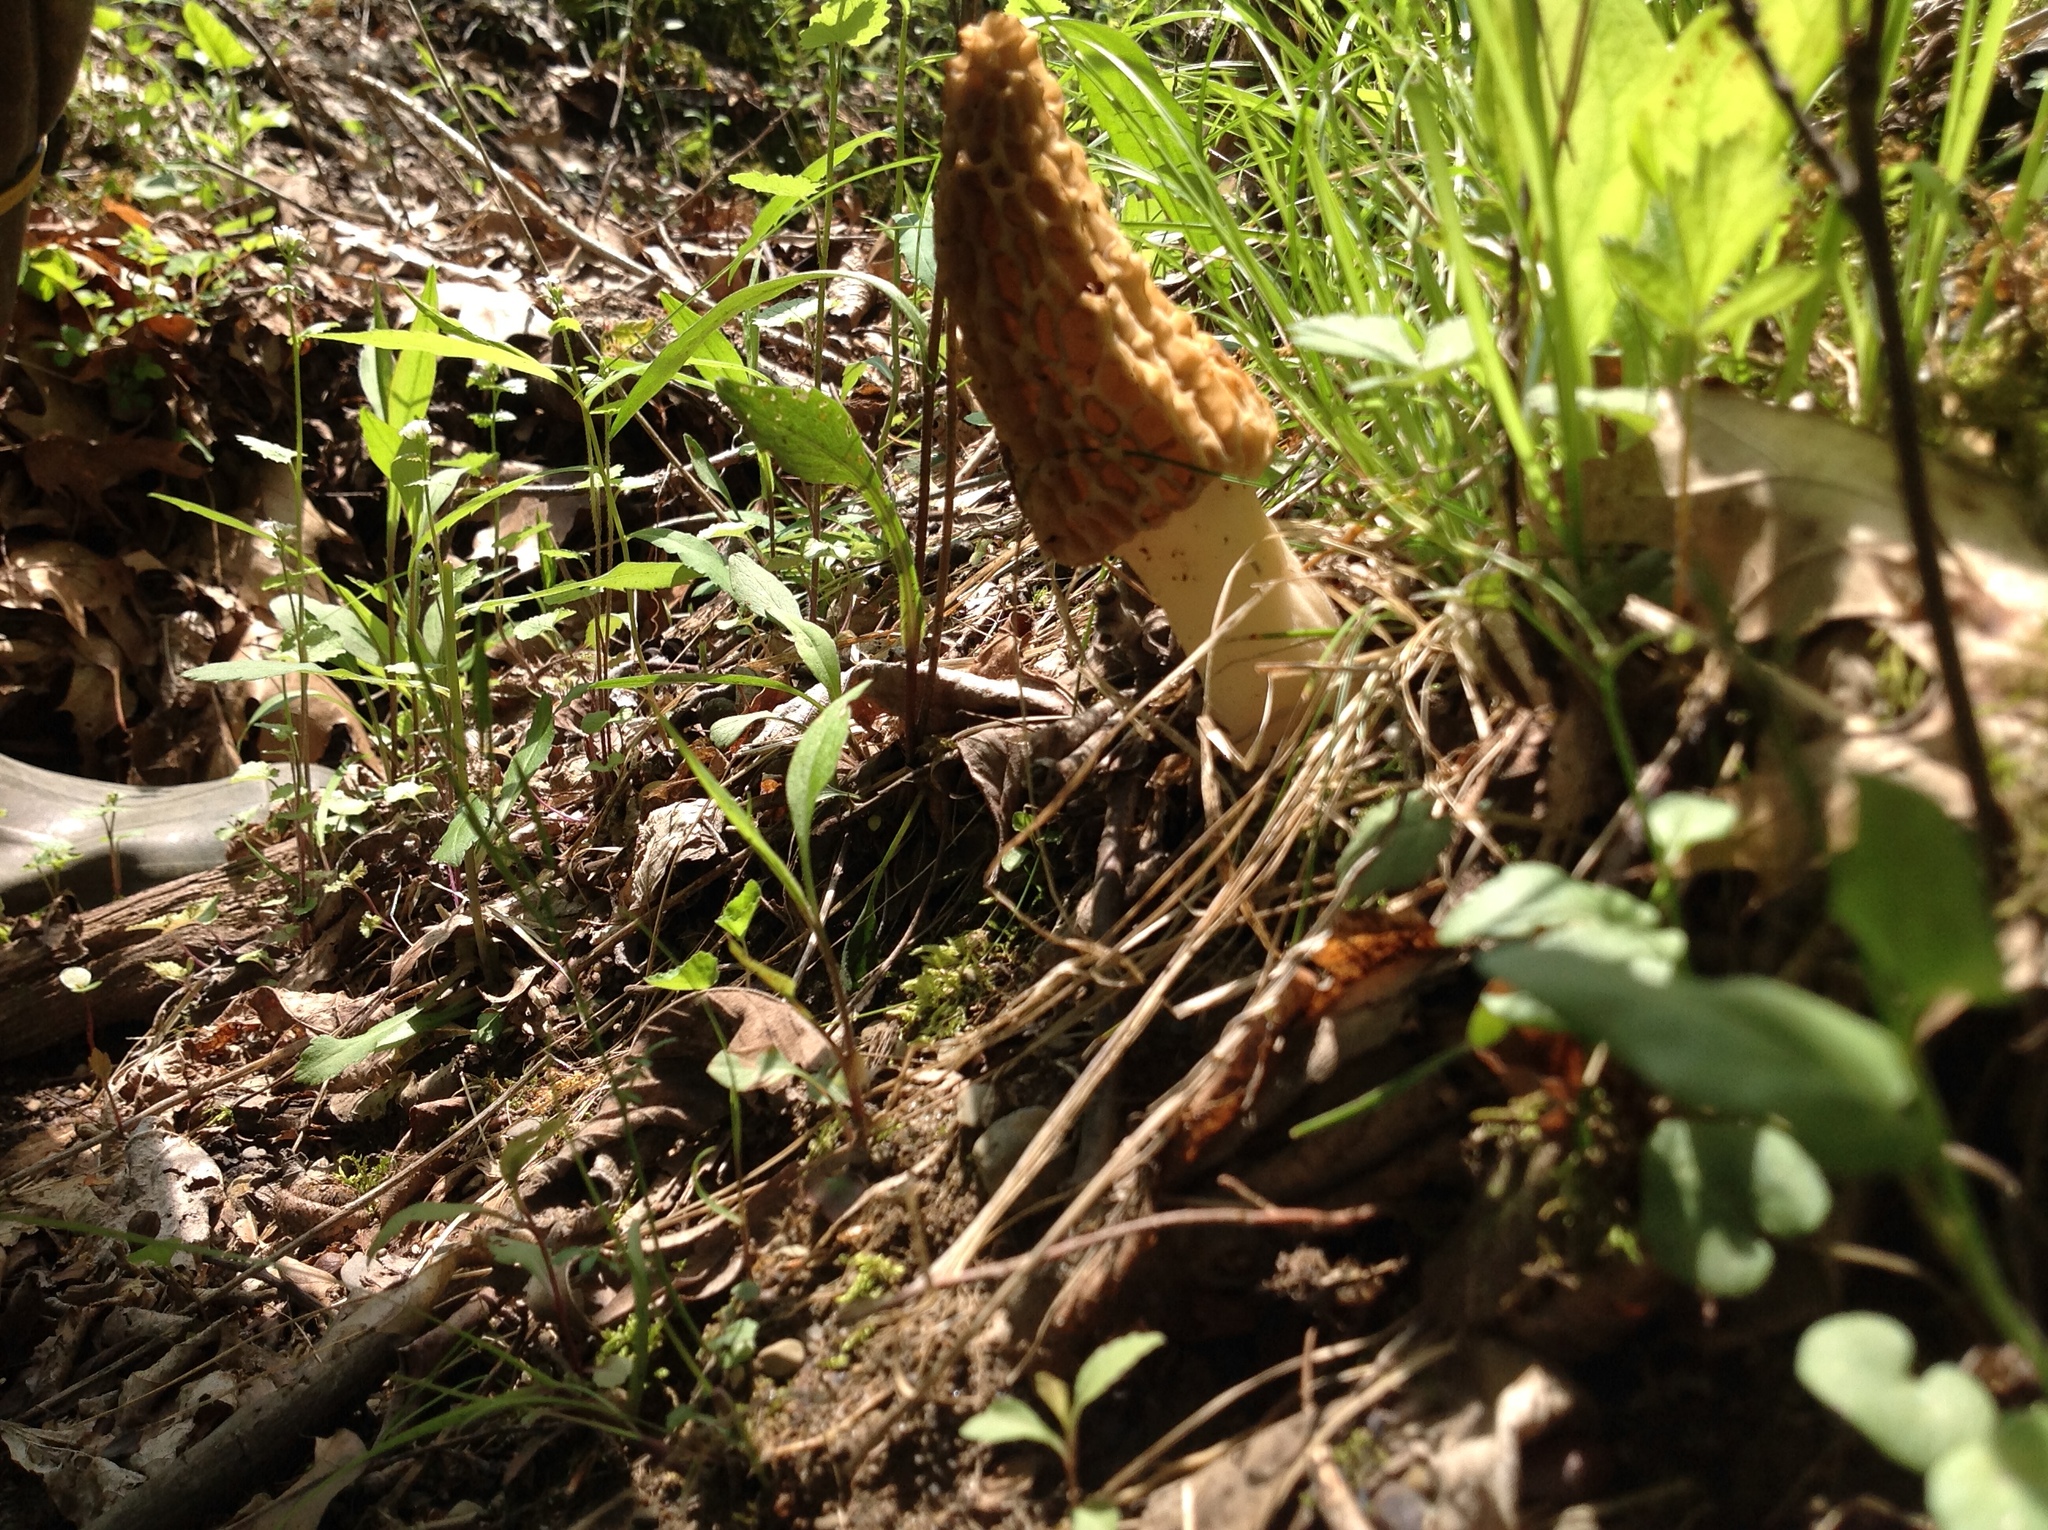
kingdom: Fungi
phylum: Ascomycota
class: Pezizomycetes
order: Pezizales
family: Morchellaceae
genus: Morchella
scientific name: Morchella americana
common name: White morel
